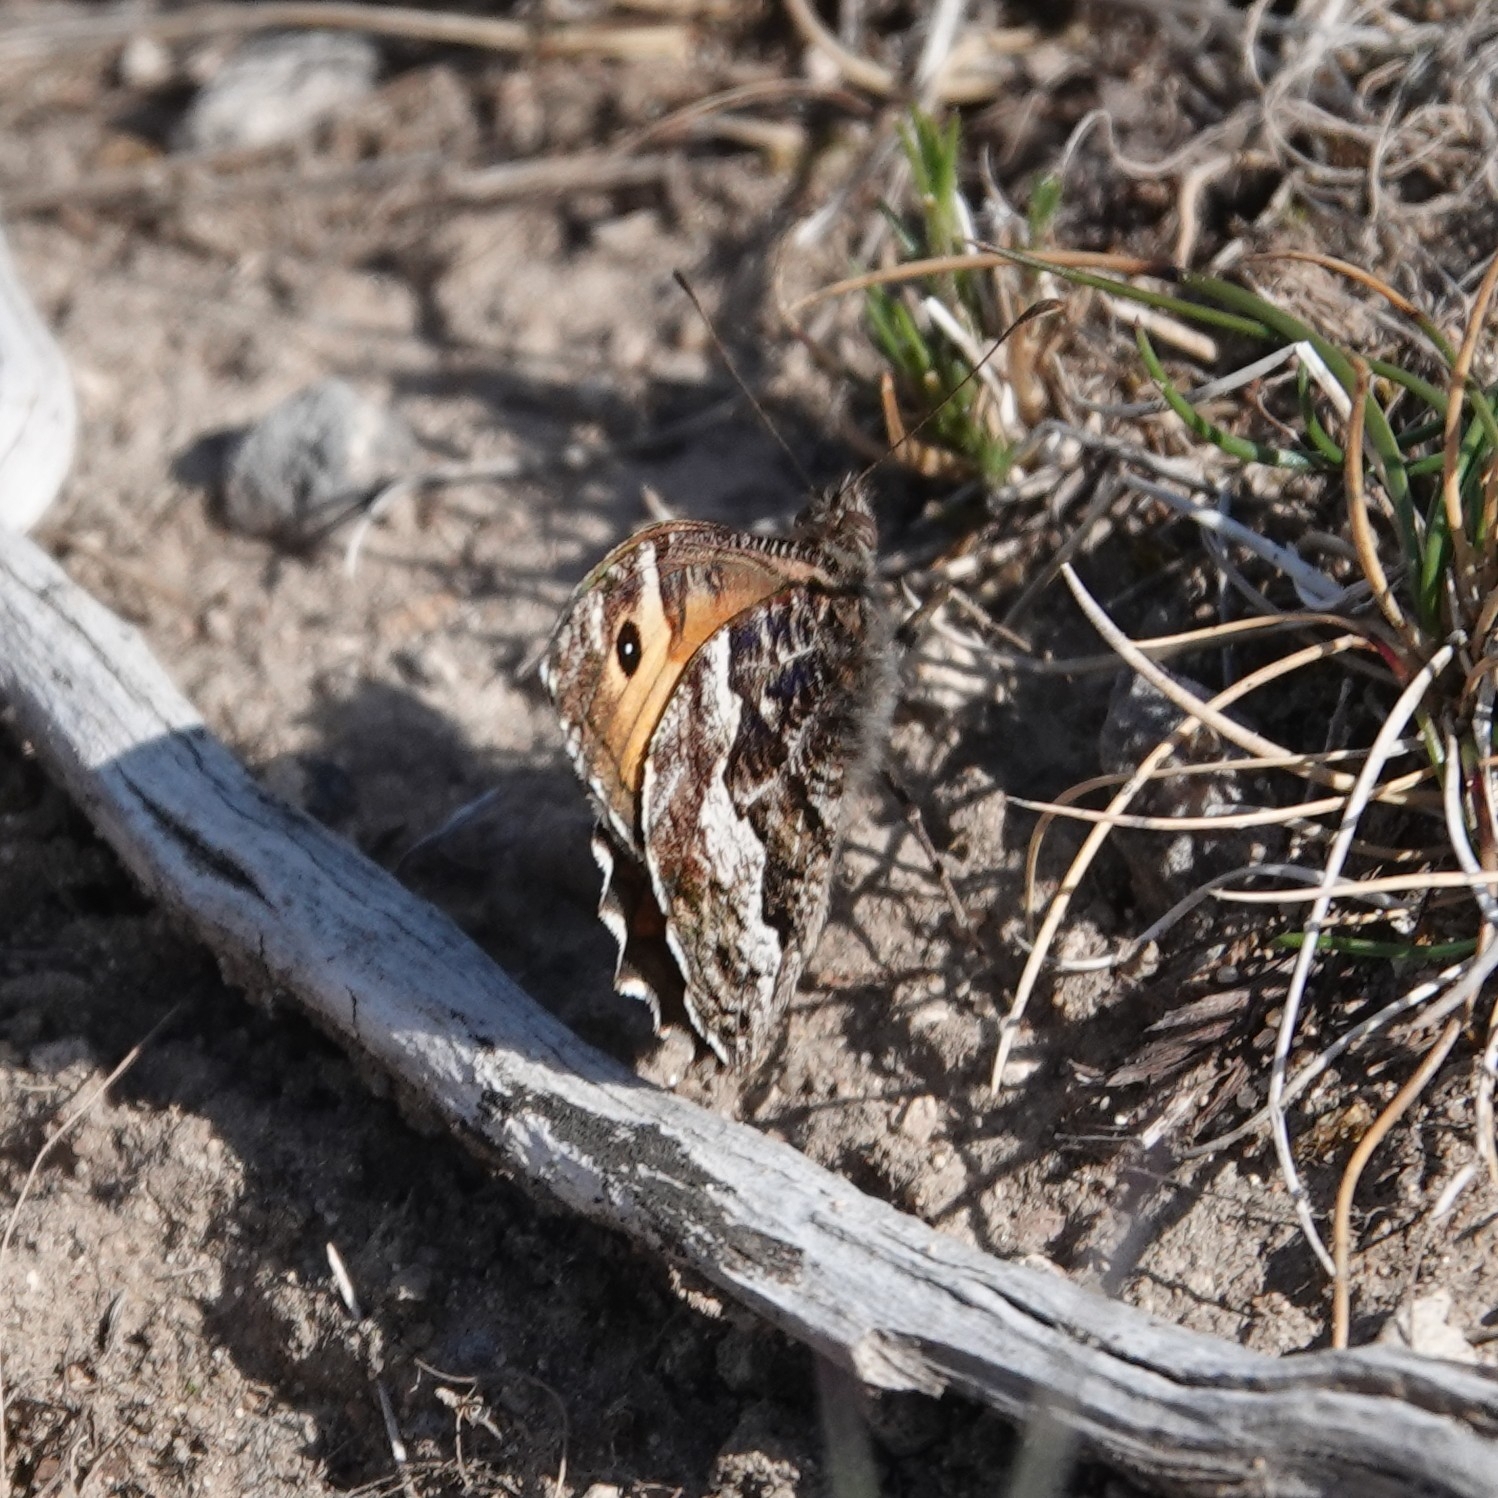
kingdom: Animalia
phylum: Arthropoda
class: Insecta
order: Lepidoptera
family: Nymphalidae
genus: Hipparchia
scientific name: Hipparchia semele
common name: Grayling
